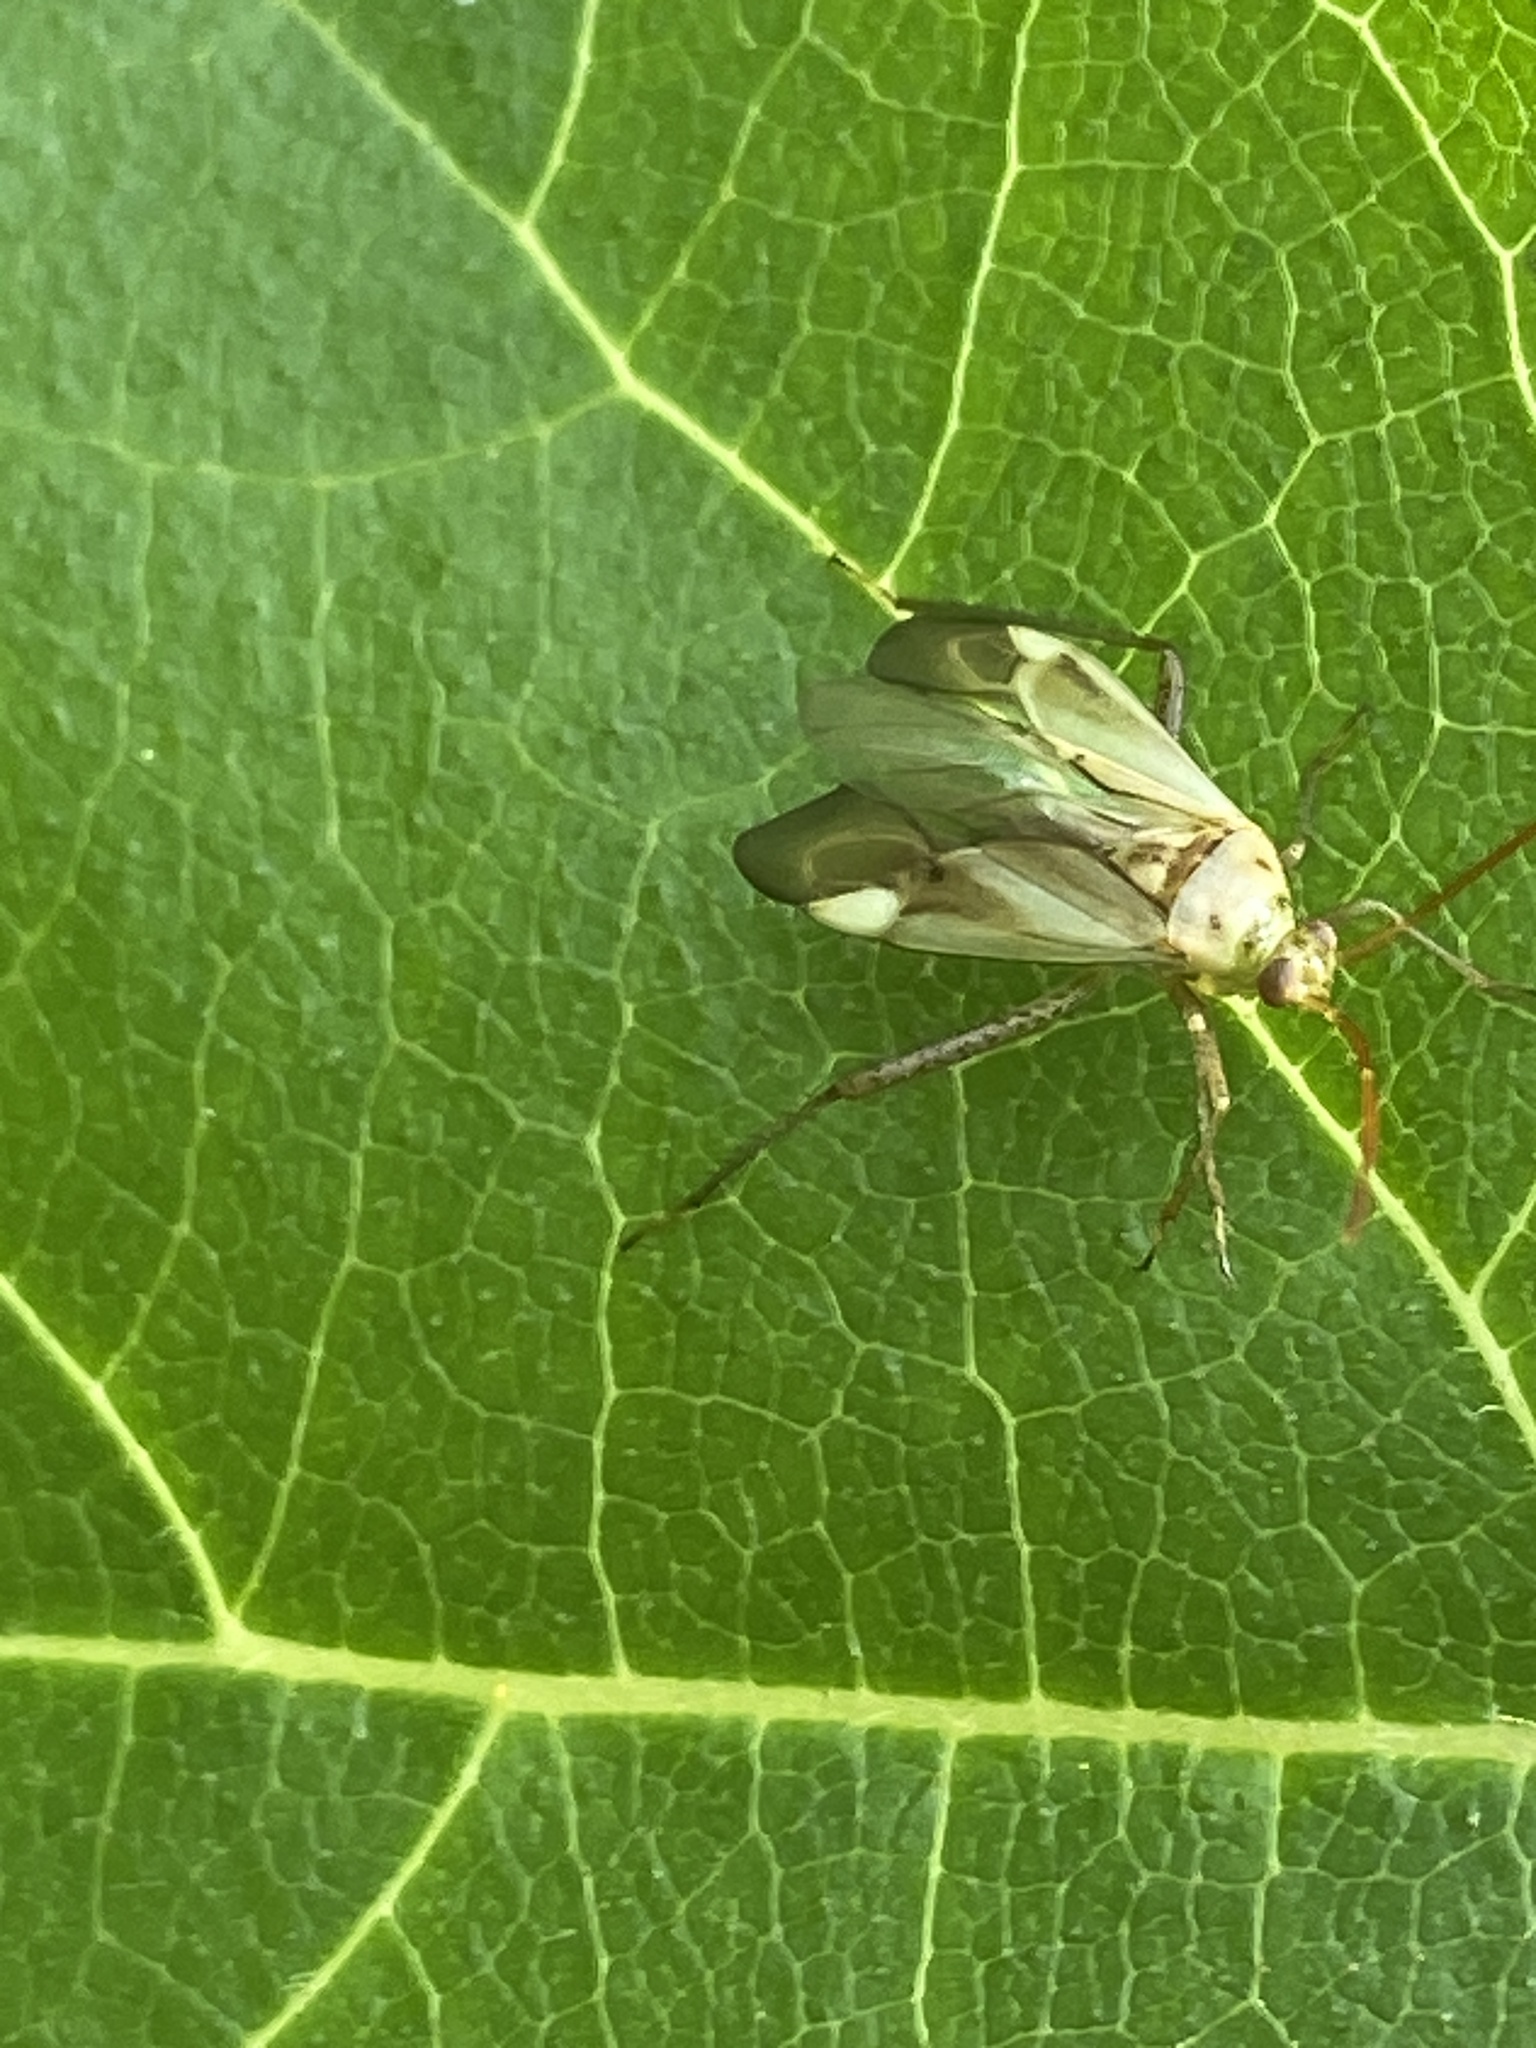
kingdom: Animalia
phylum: Arthropoda
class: Insecta
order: Hemiptera
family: Miridae
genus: Adelphocoris
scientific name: Adelphocoris lineolatus
